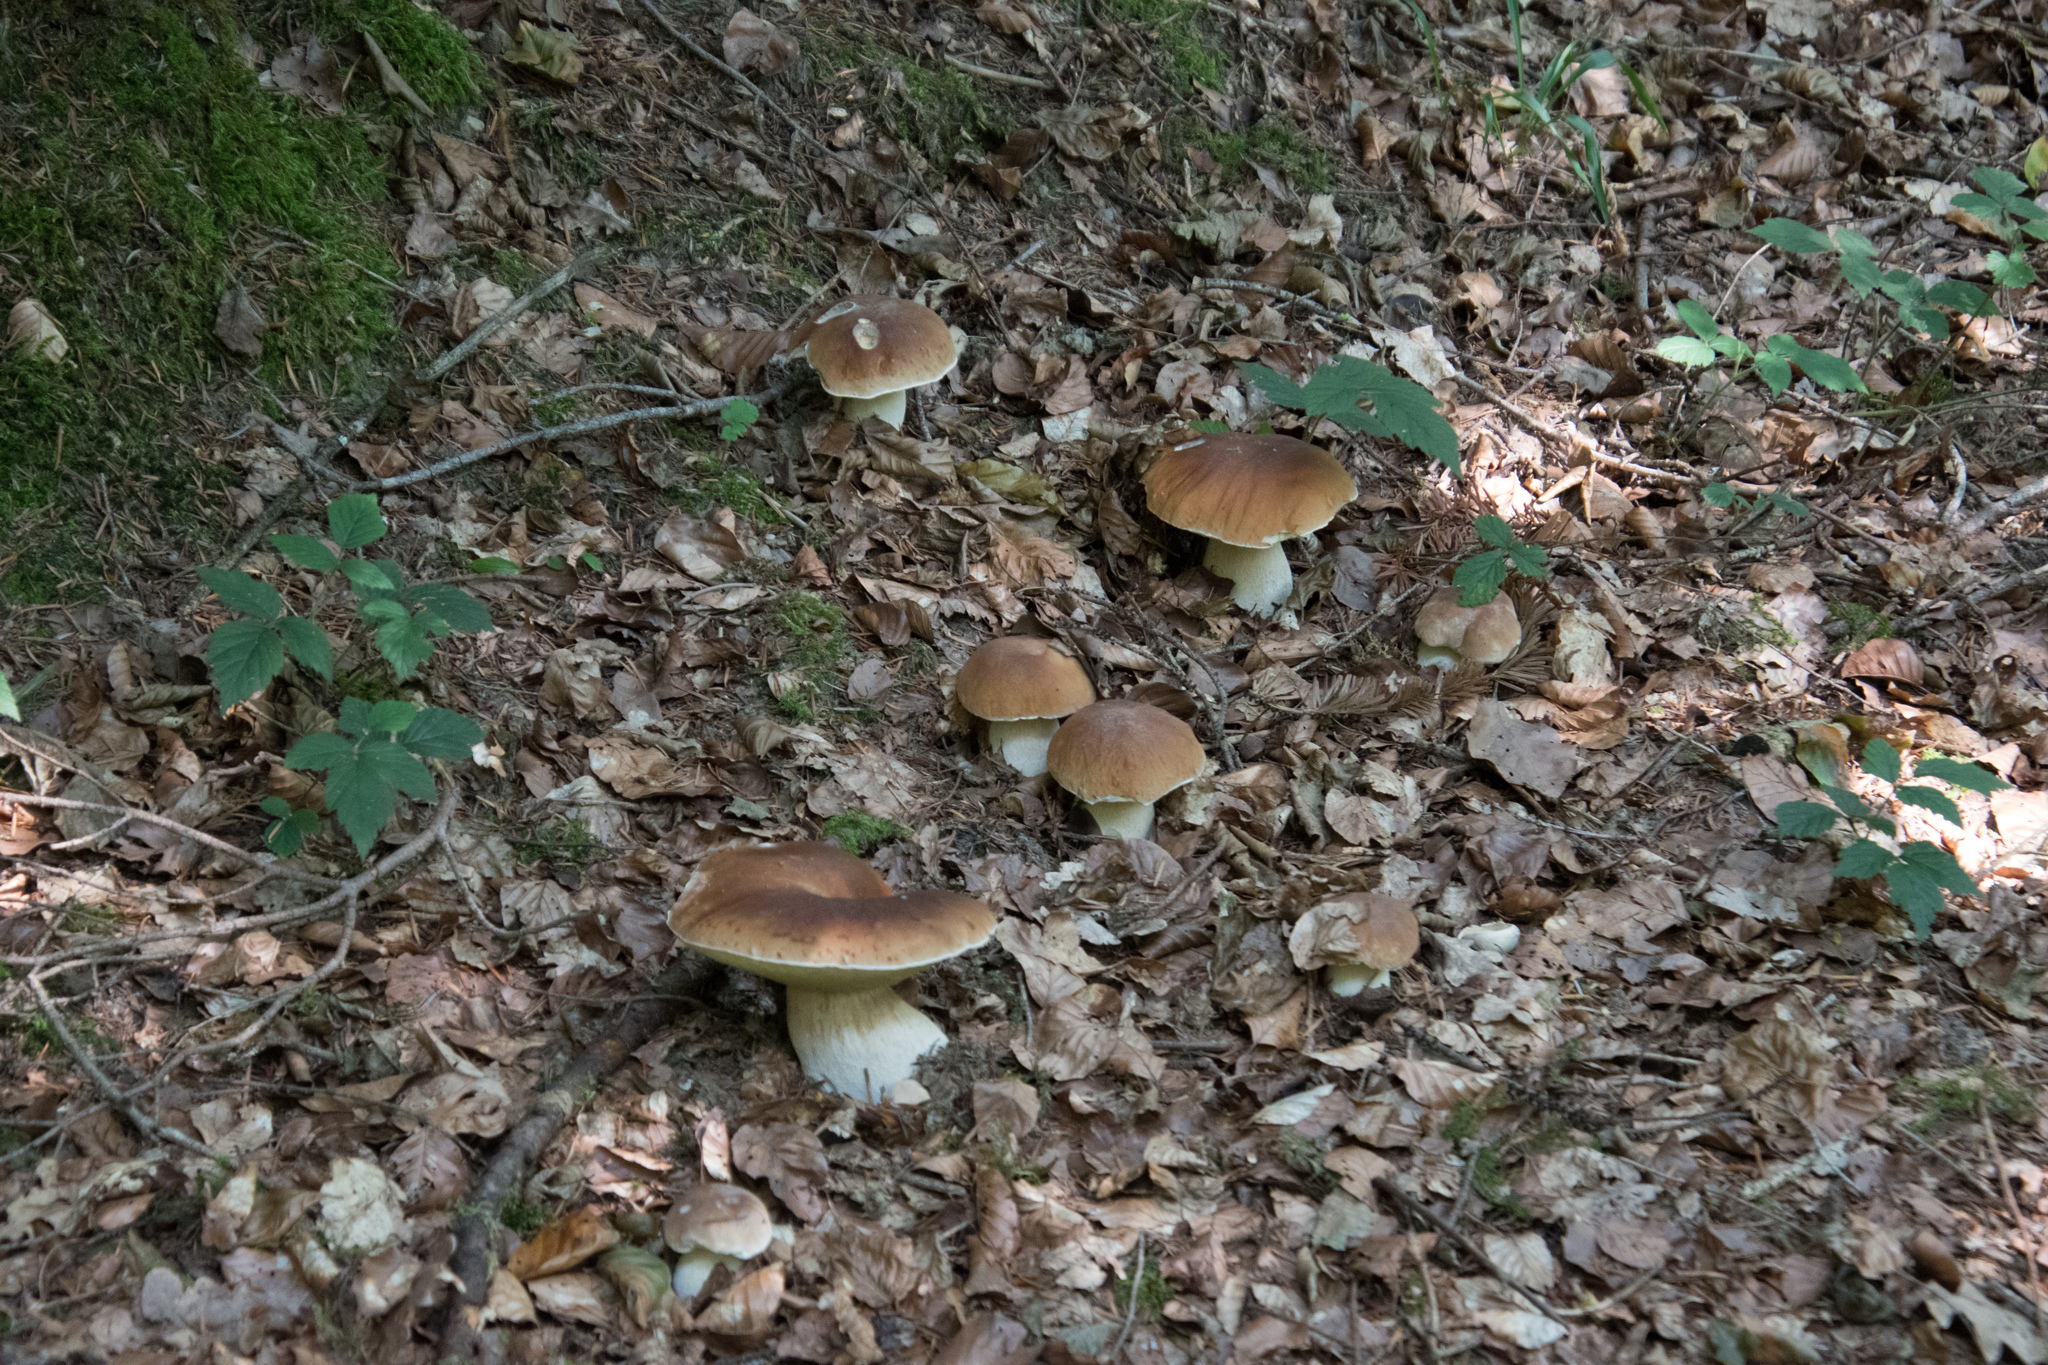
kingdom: Fungi
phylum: Basidiomycota
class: Agaricomycetes
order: Boletales
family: Boletaceae
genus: Boletus
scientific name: Boletus edulis
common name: Cep
